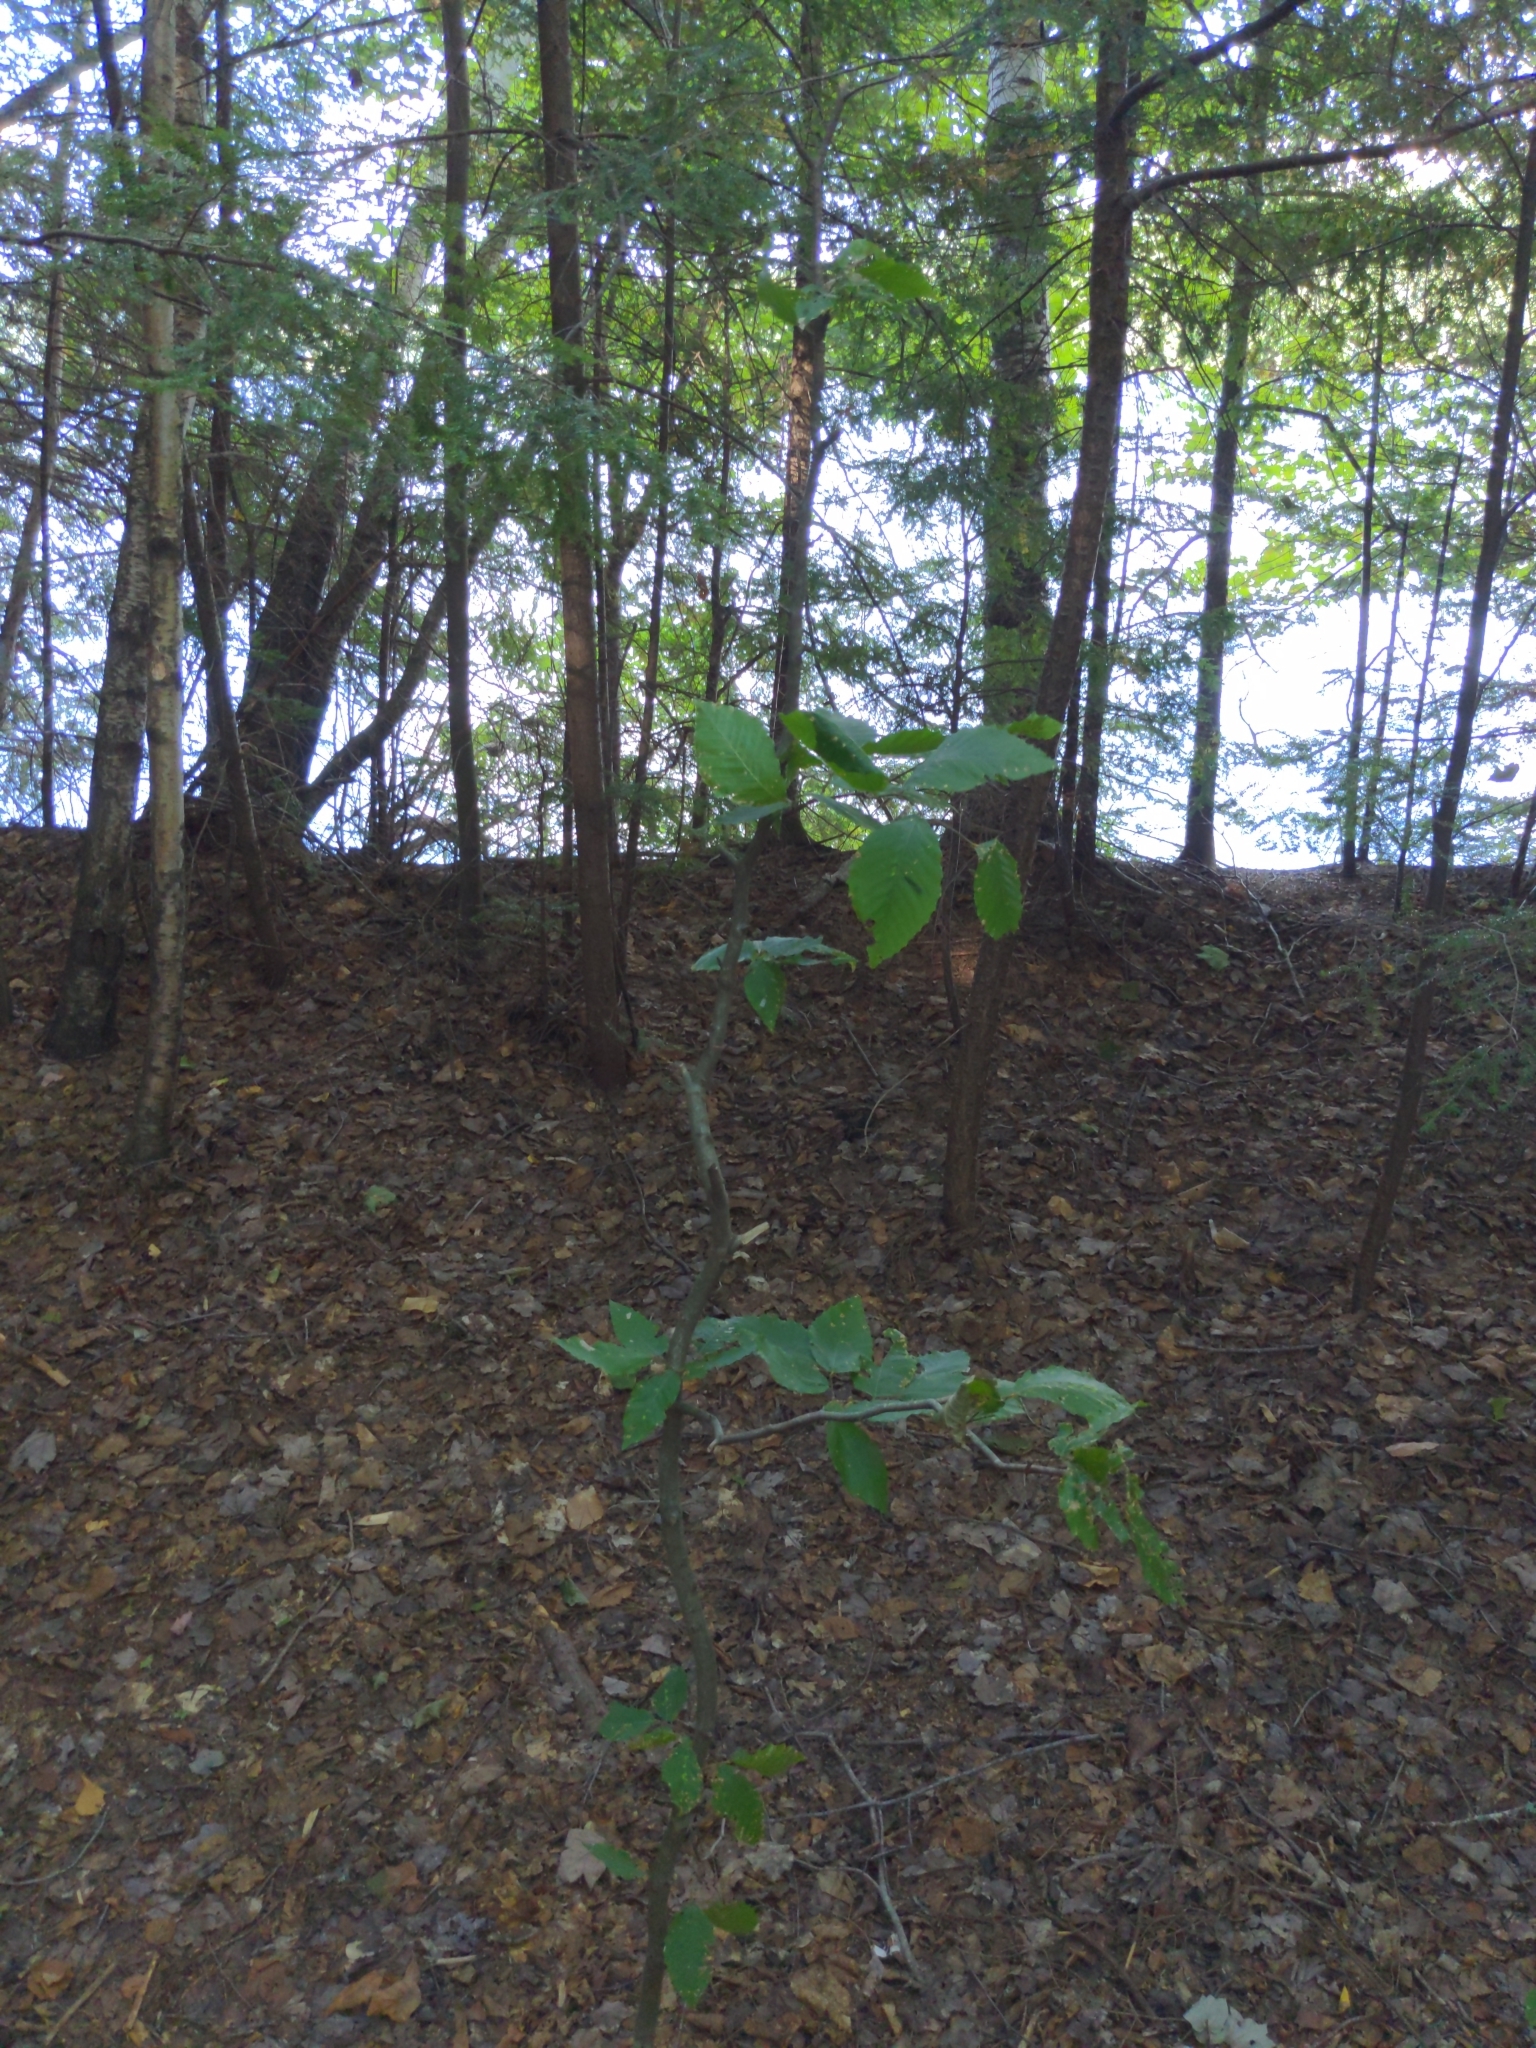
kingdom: Plantae
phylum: Tracheophyta
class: Magnoliopsida
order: Fagales
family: Fagaceae
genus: Fagus
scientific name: Fagus grandifolia
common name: American beech
